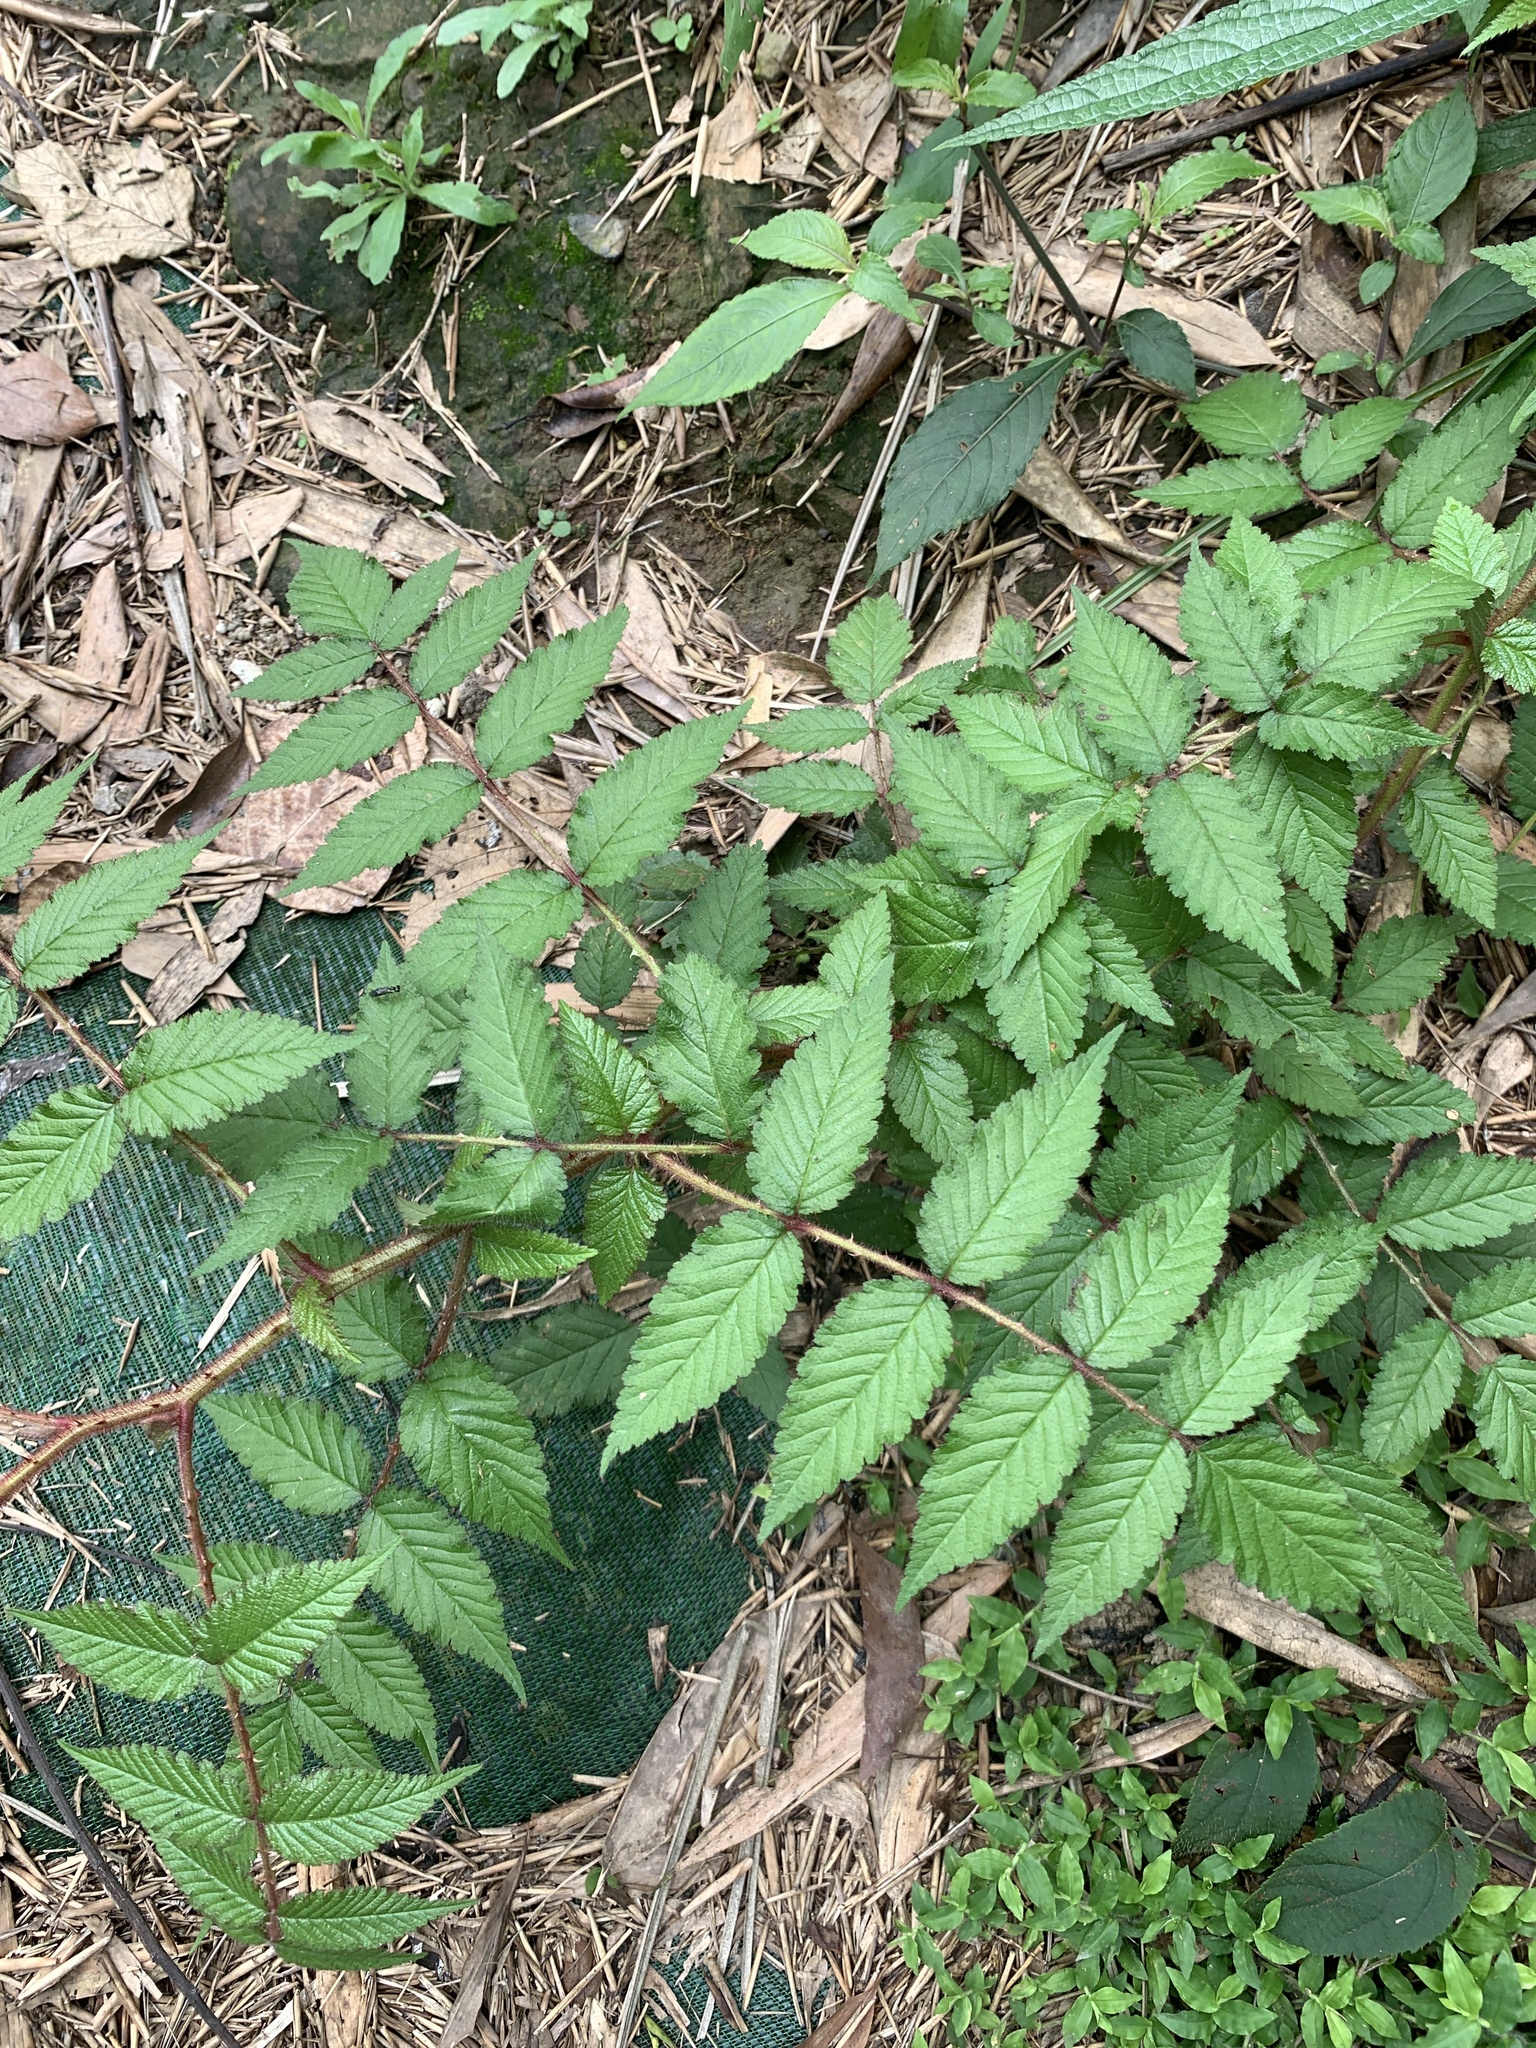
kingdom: Plantae
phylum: Tracheophyta
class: Magnoliopsida
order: Rosales
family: Rosaceae
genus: Rubus
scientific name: Rubus croceacanthus
